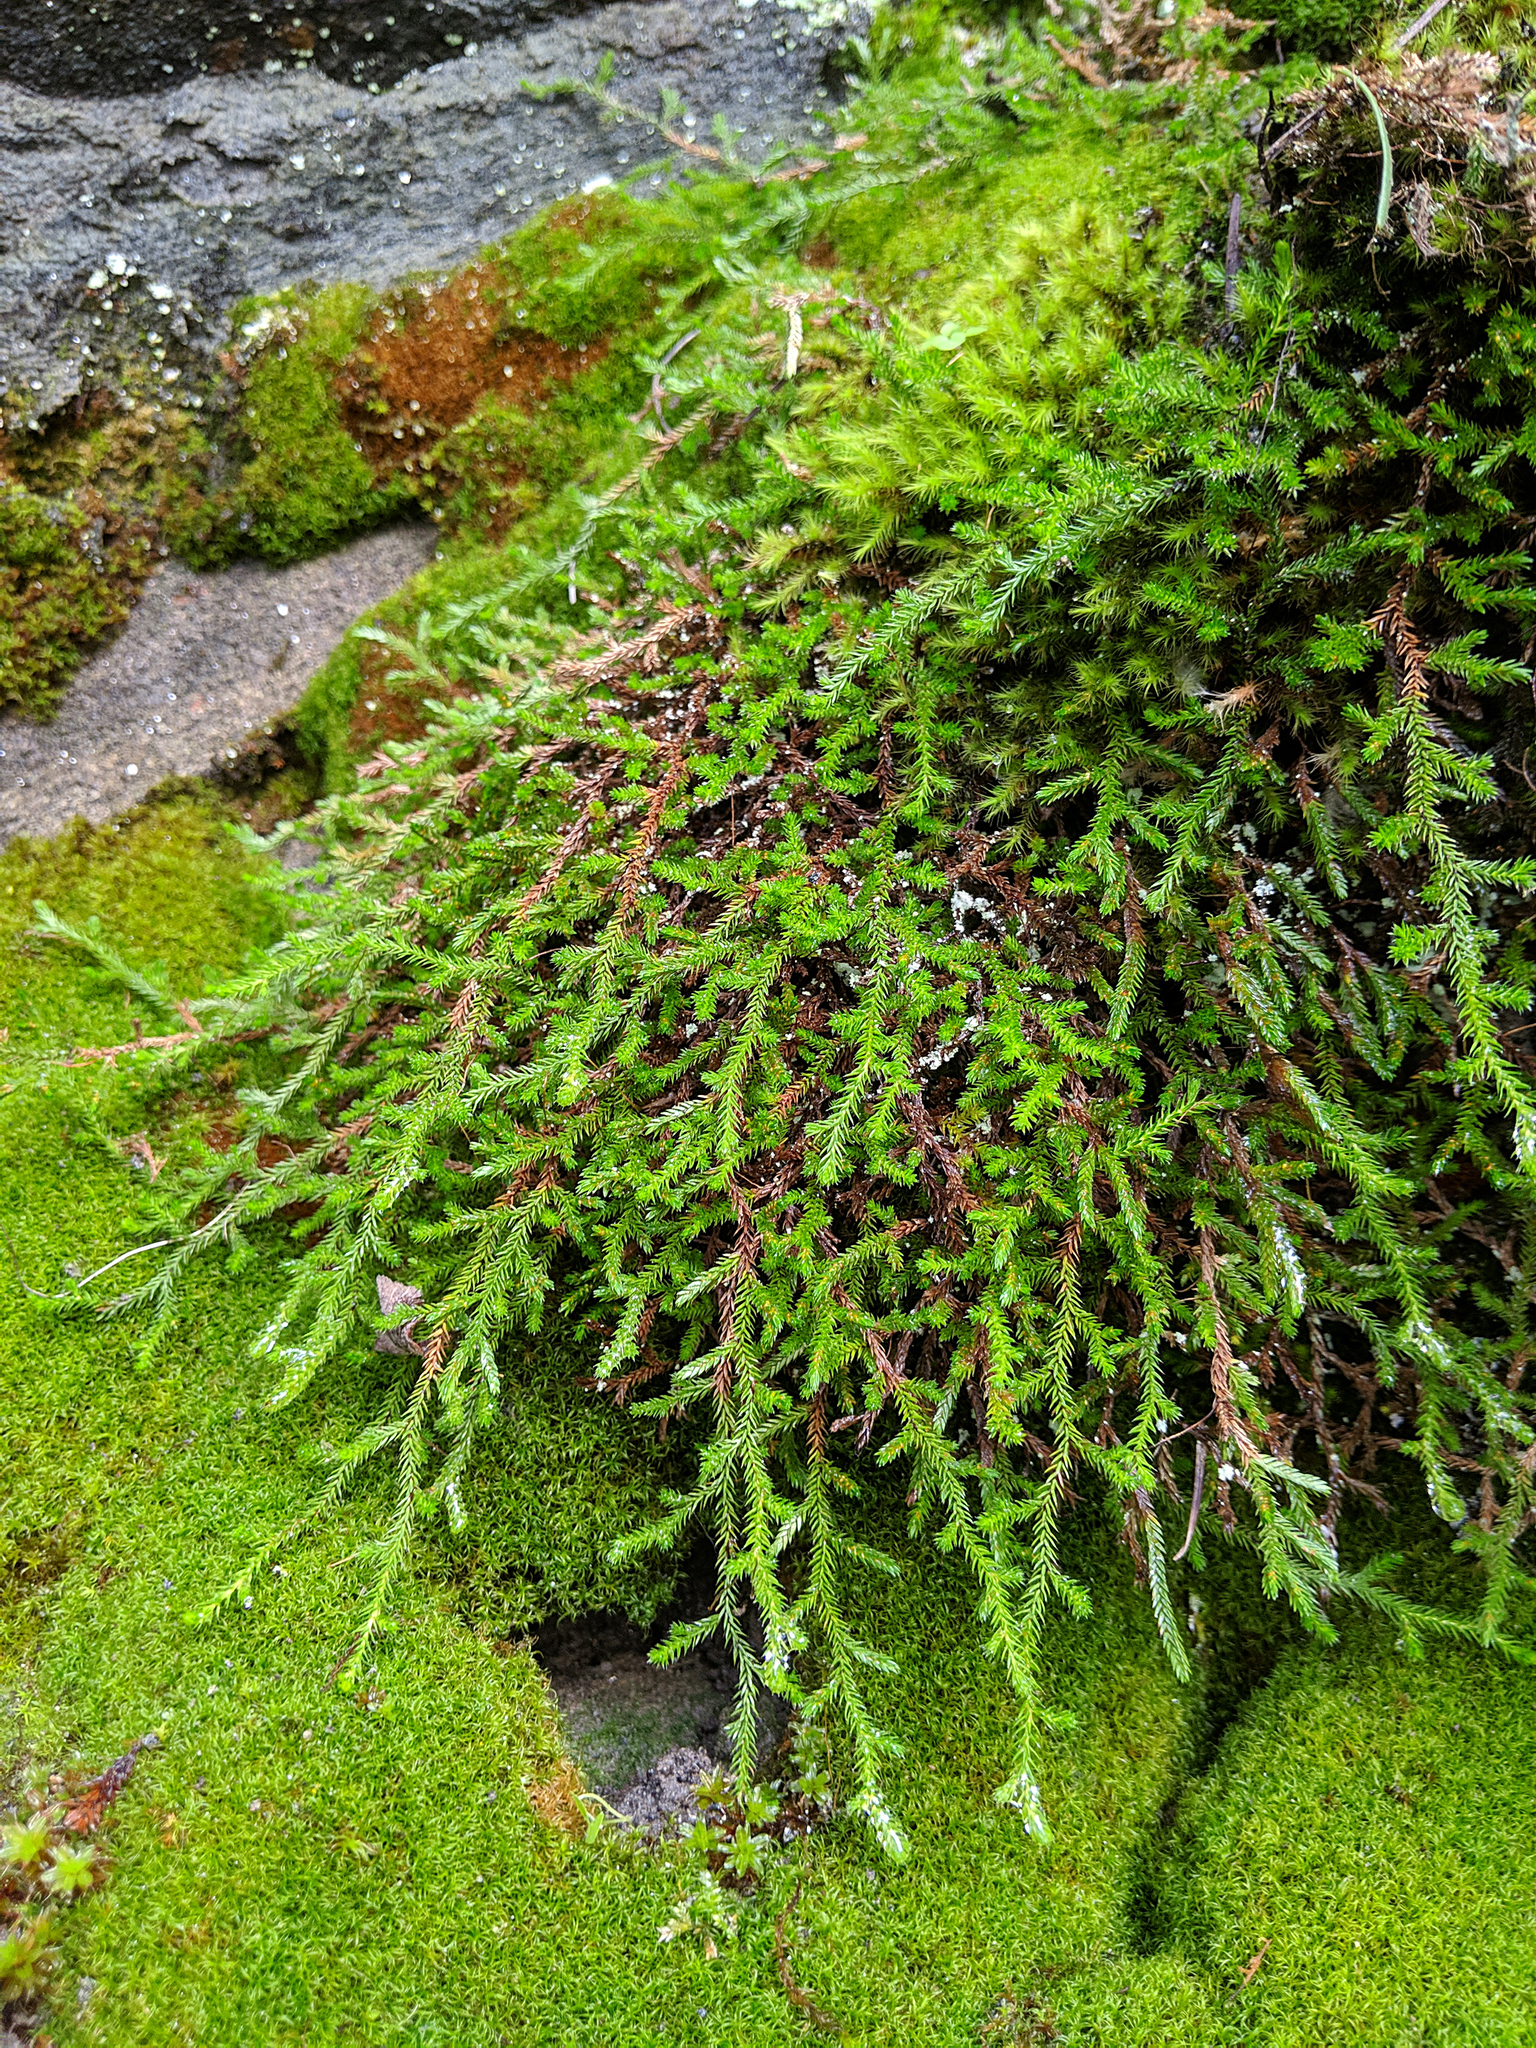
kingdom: Plantae
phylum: Tracheophyta
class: Lycopodiopsida
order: Selaginellales
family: Selaginellaceae
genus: Selaginella
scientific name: Selaginella wallacei
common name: Wallace's selaginella
